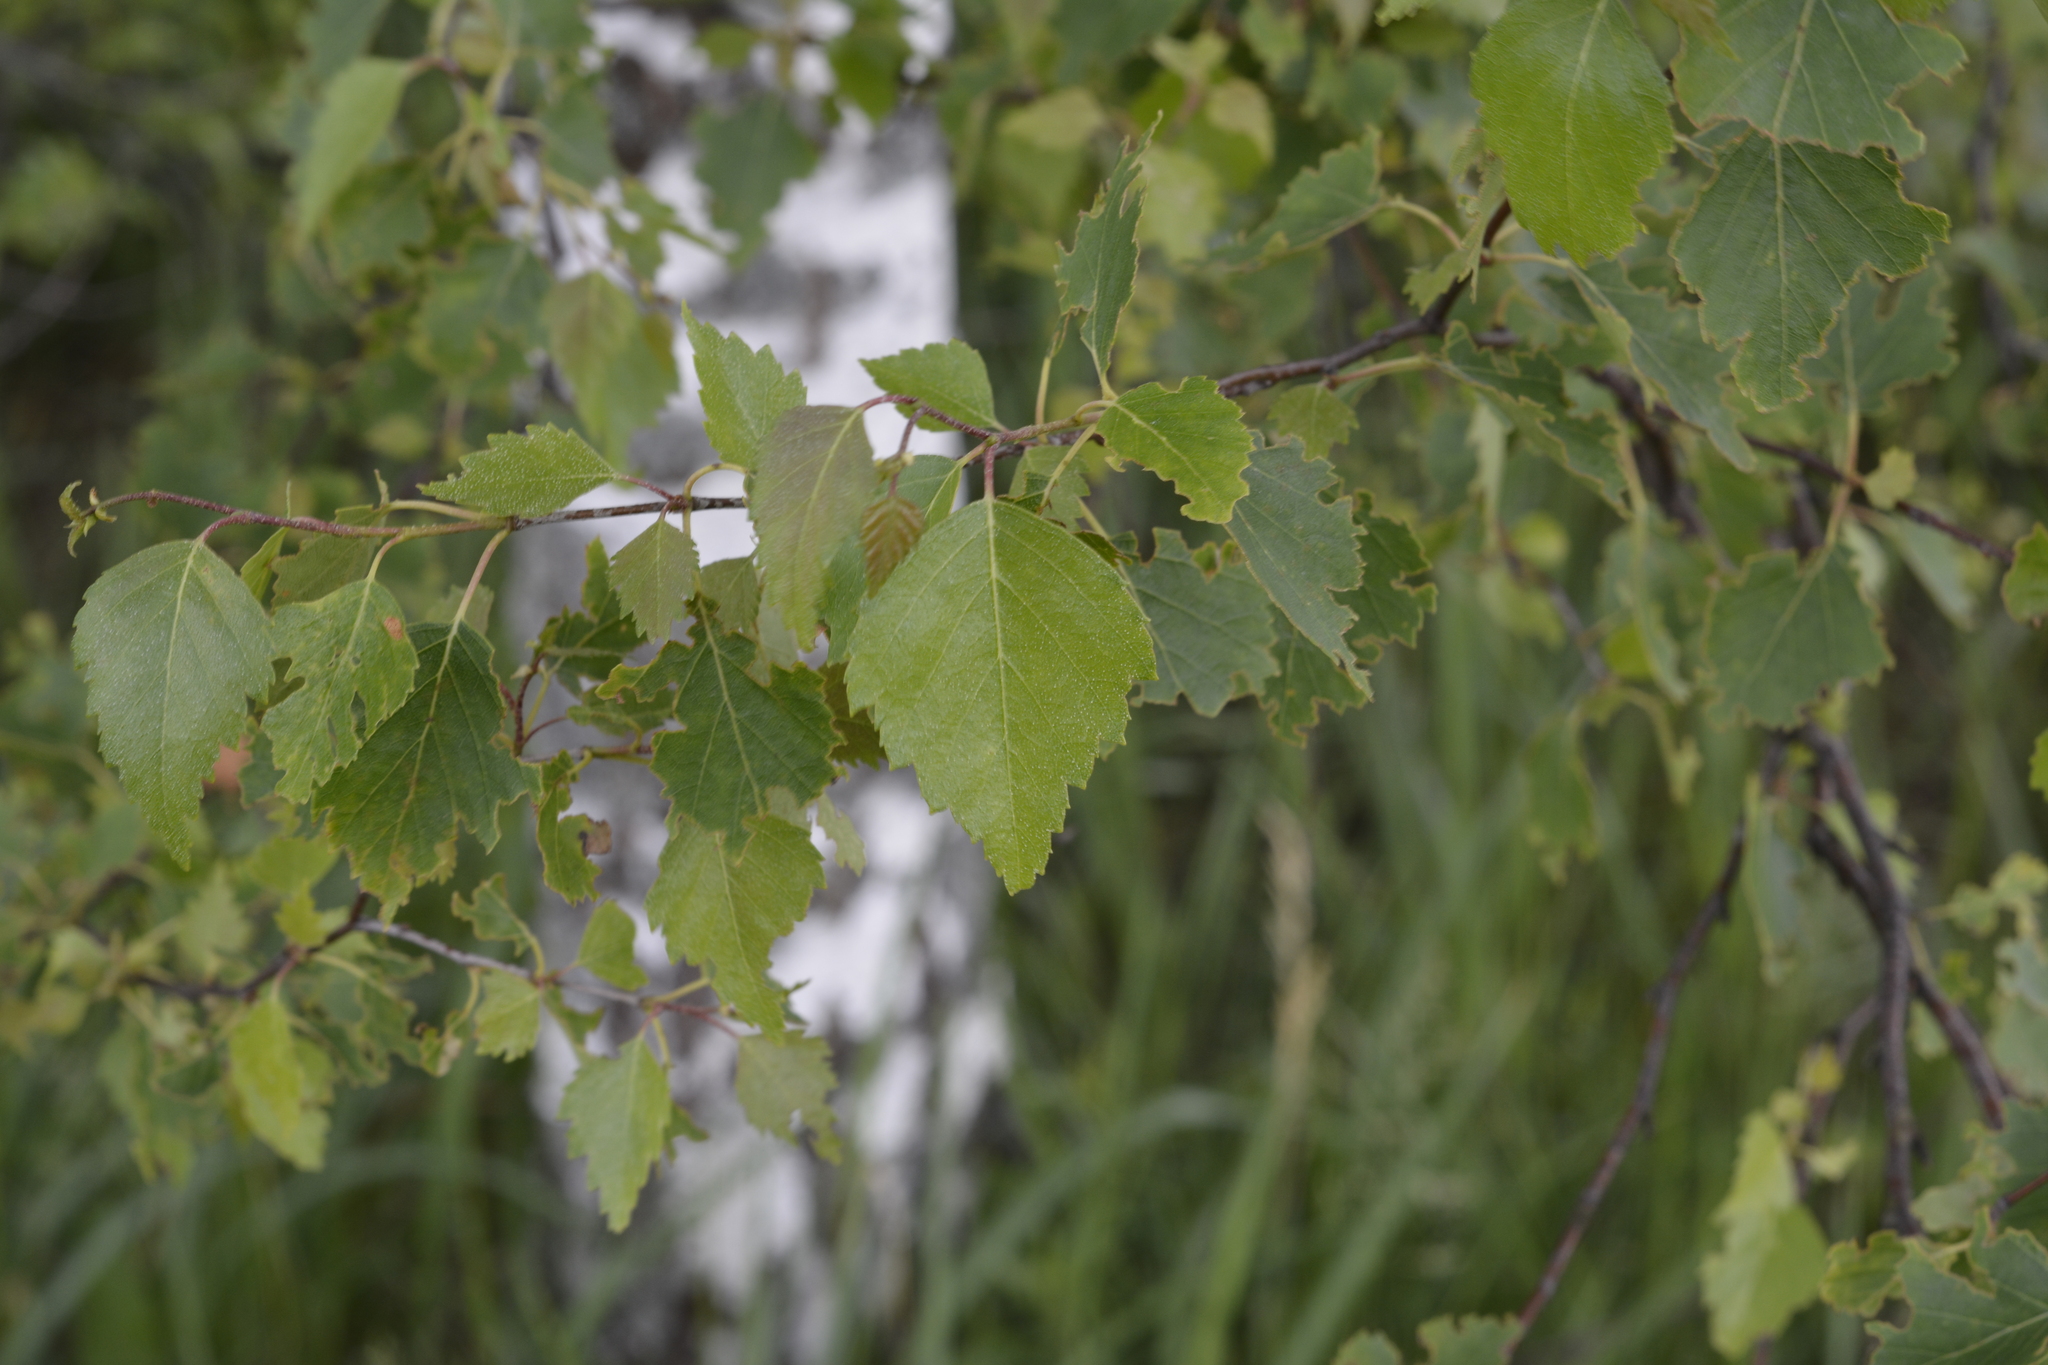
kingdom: Plantae
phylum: Tracheophyta
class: Magnoliopsida
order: Fagales
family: Betulaceae
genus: Betula
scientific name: Betula pendula
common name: Silver birch
